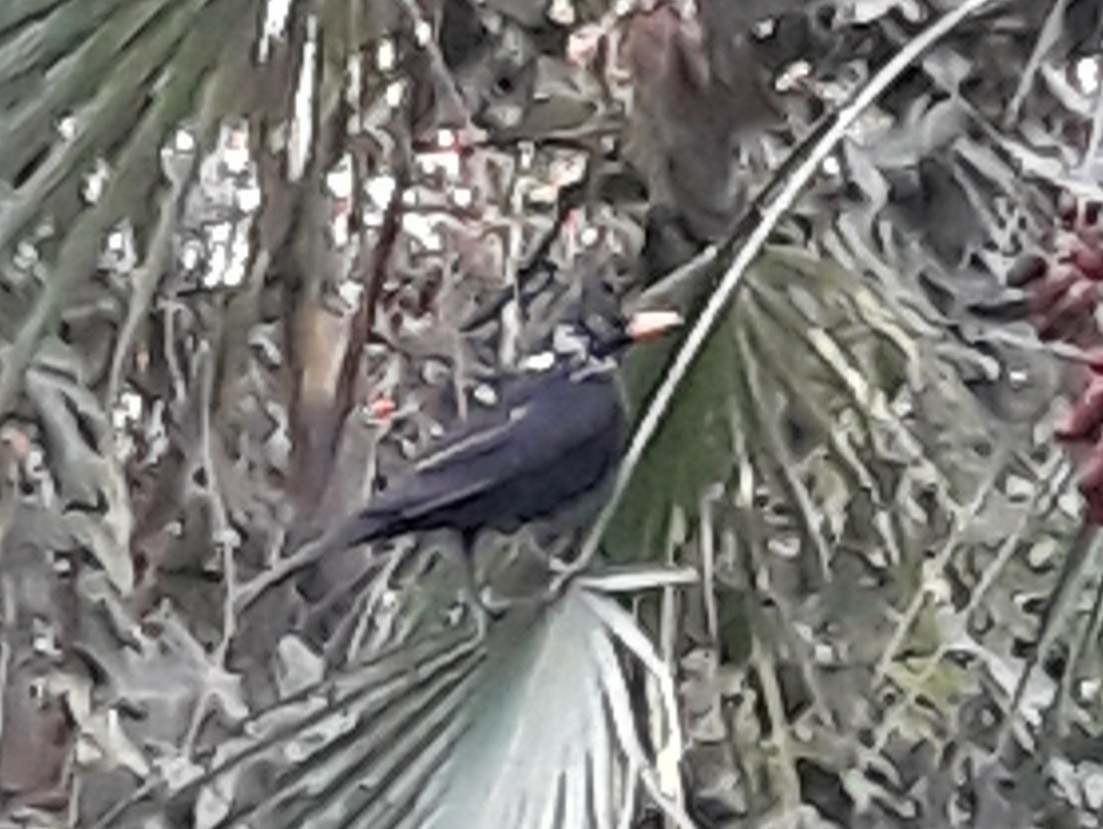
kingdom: Animalia
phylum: Chordata
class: Aves
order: Passeriformes
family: Turdidae
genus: Turdus
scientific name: Turdus merula
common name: Common blackbird
